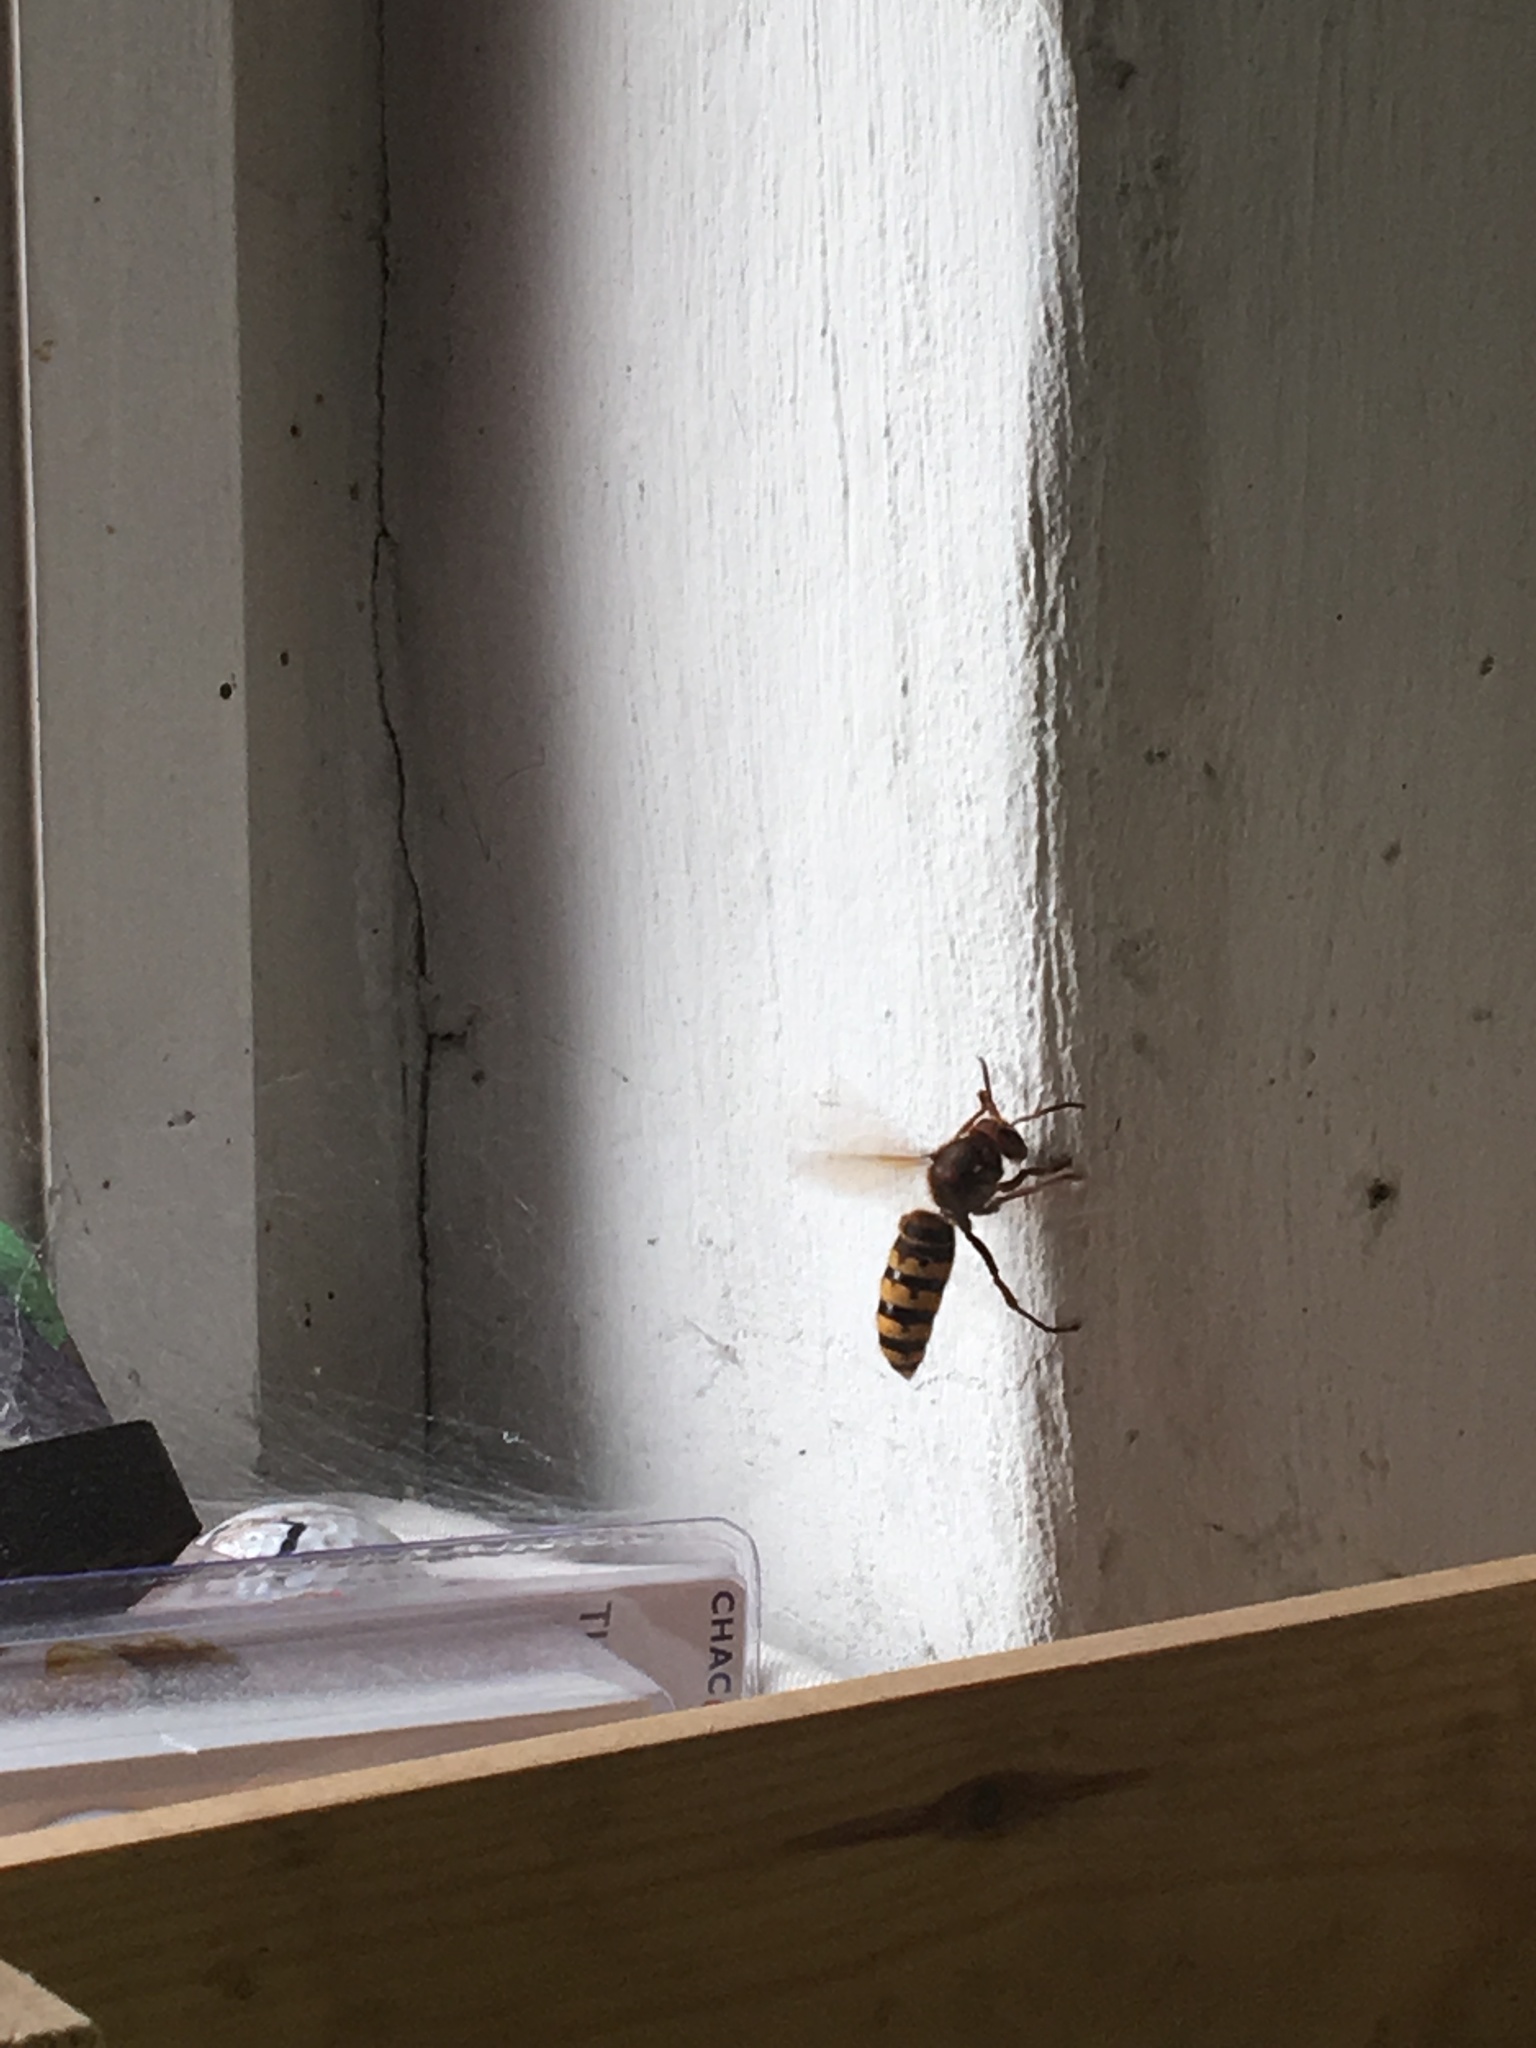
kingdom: Animalia
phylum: Arthropoda
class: Insecta
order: Hymenoptera
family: Vespidae
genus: Vespa
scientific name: Vespa crabro
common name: Hornet
